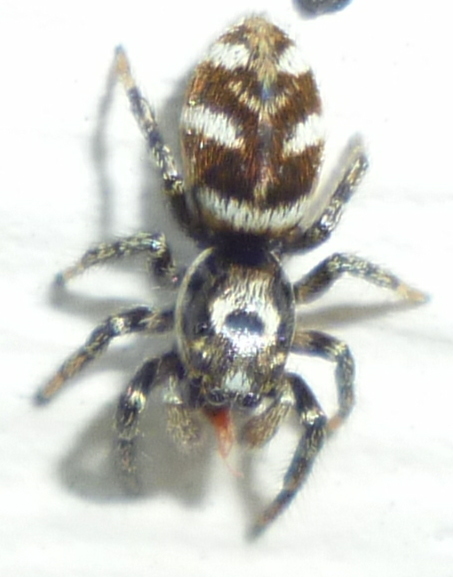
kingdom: Animalia
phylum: Arthropoda
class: Arachnida
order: Araneae
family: Salticidae
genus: Salticus
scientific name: Salticus scenicus
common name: Zebra jumper
